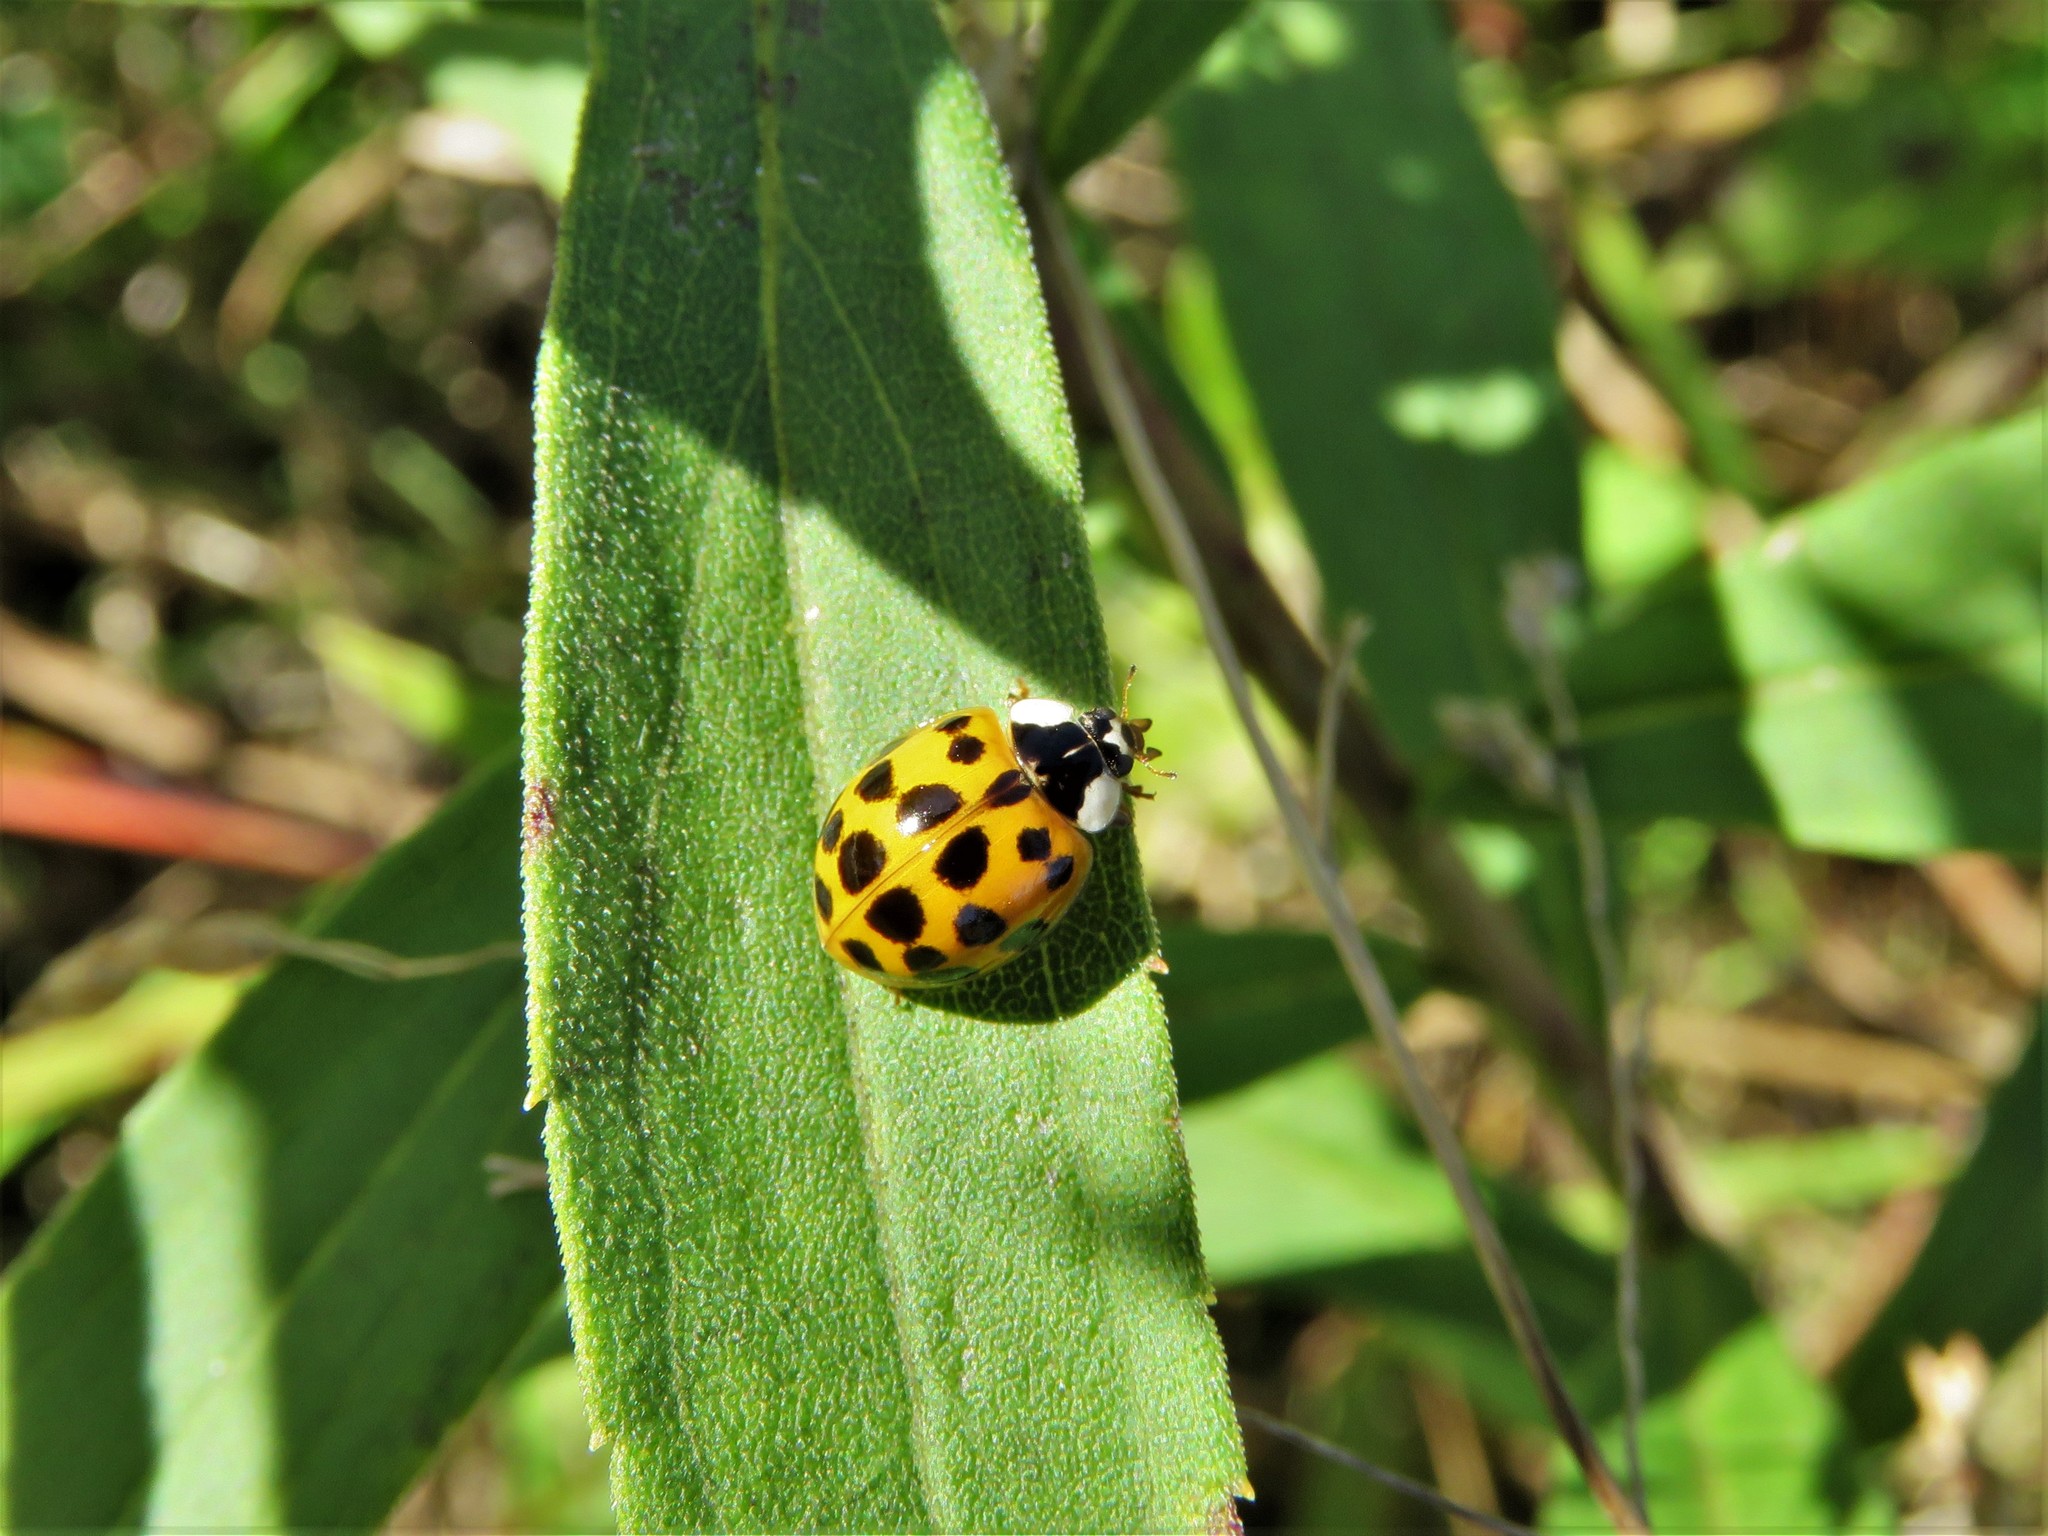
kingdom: Animalia
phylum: Arthropoda
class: Insecta
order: Coleoptera
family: Coccinellidae
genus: Harmonia
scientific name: Harmonia axyridis
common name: Harlequin ladybird
